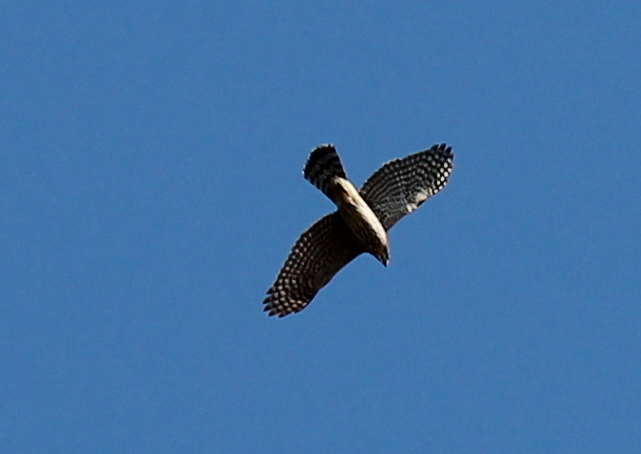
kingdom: Animalia
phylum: Chordata
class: Aves
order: Accipitriformes
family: Accipitridae
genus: Accipiter
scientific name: Accipiter cooperii
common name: Cooper's hawk
